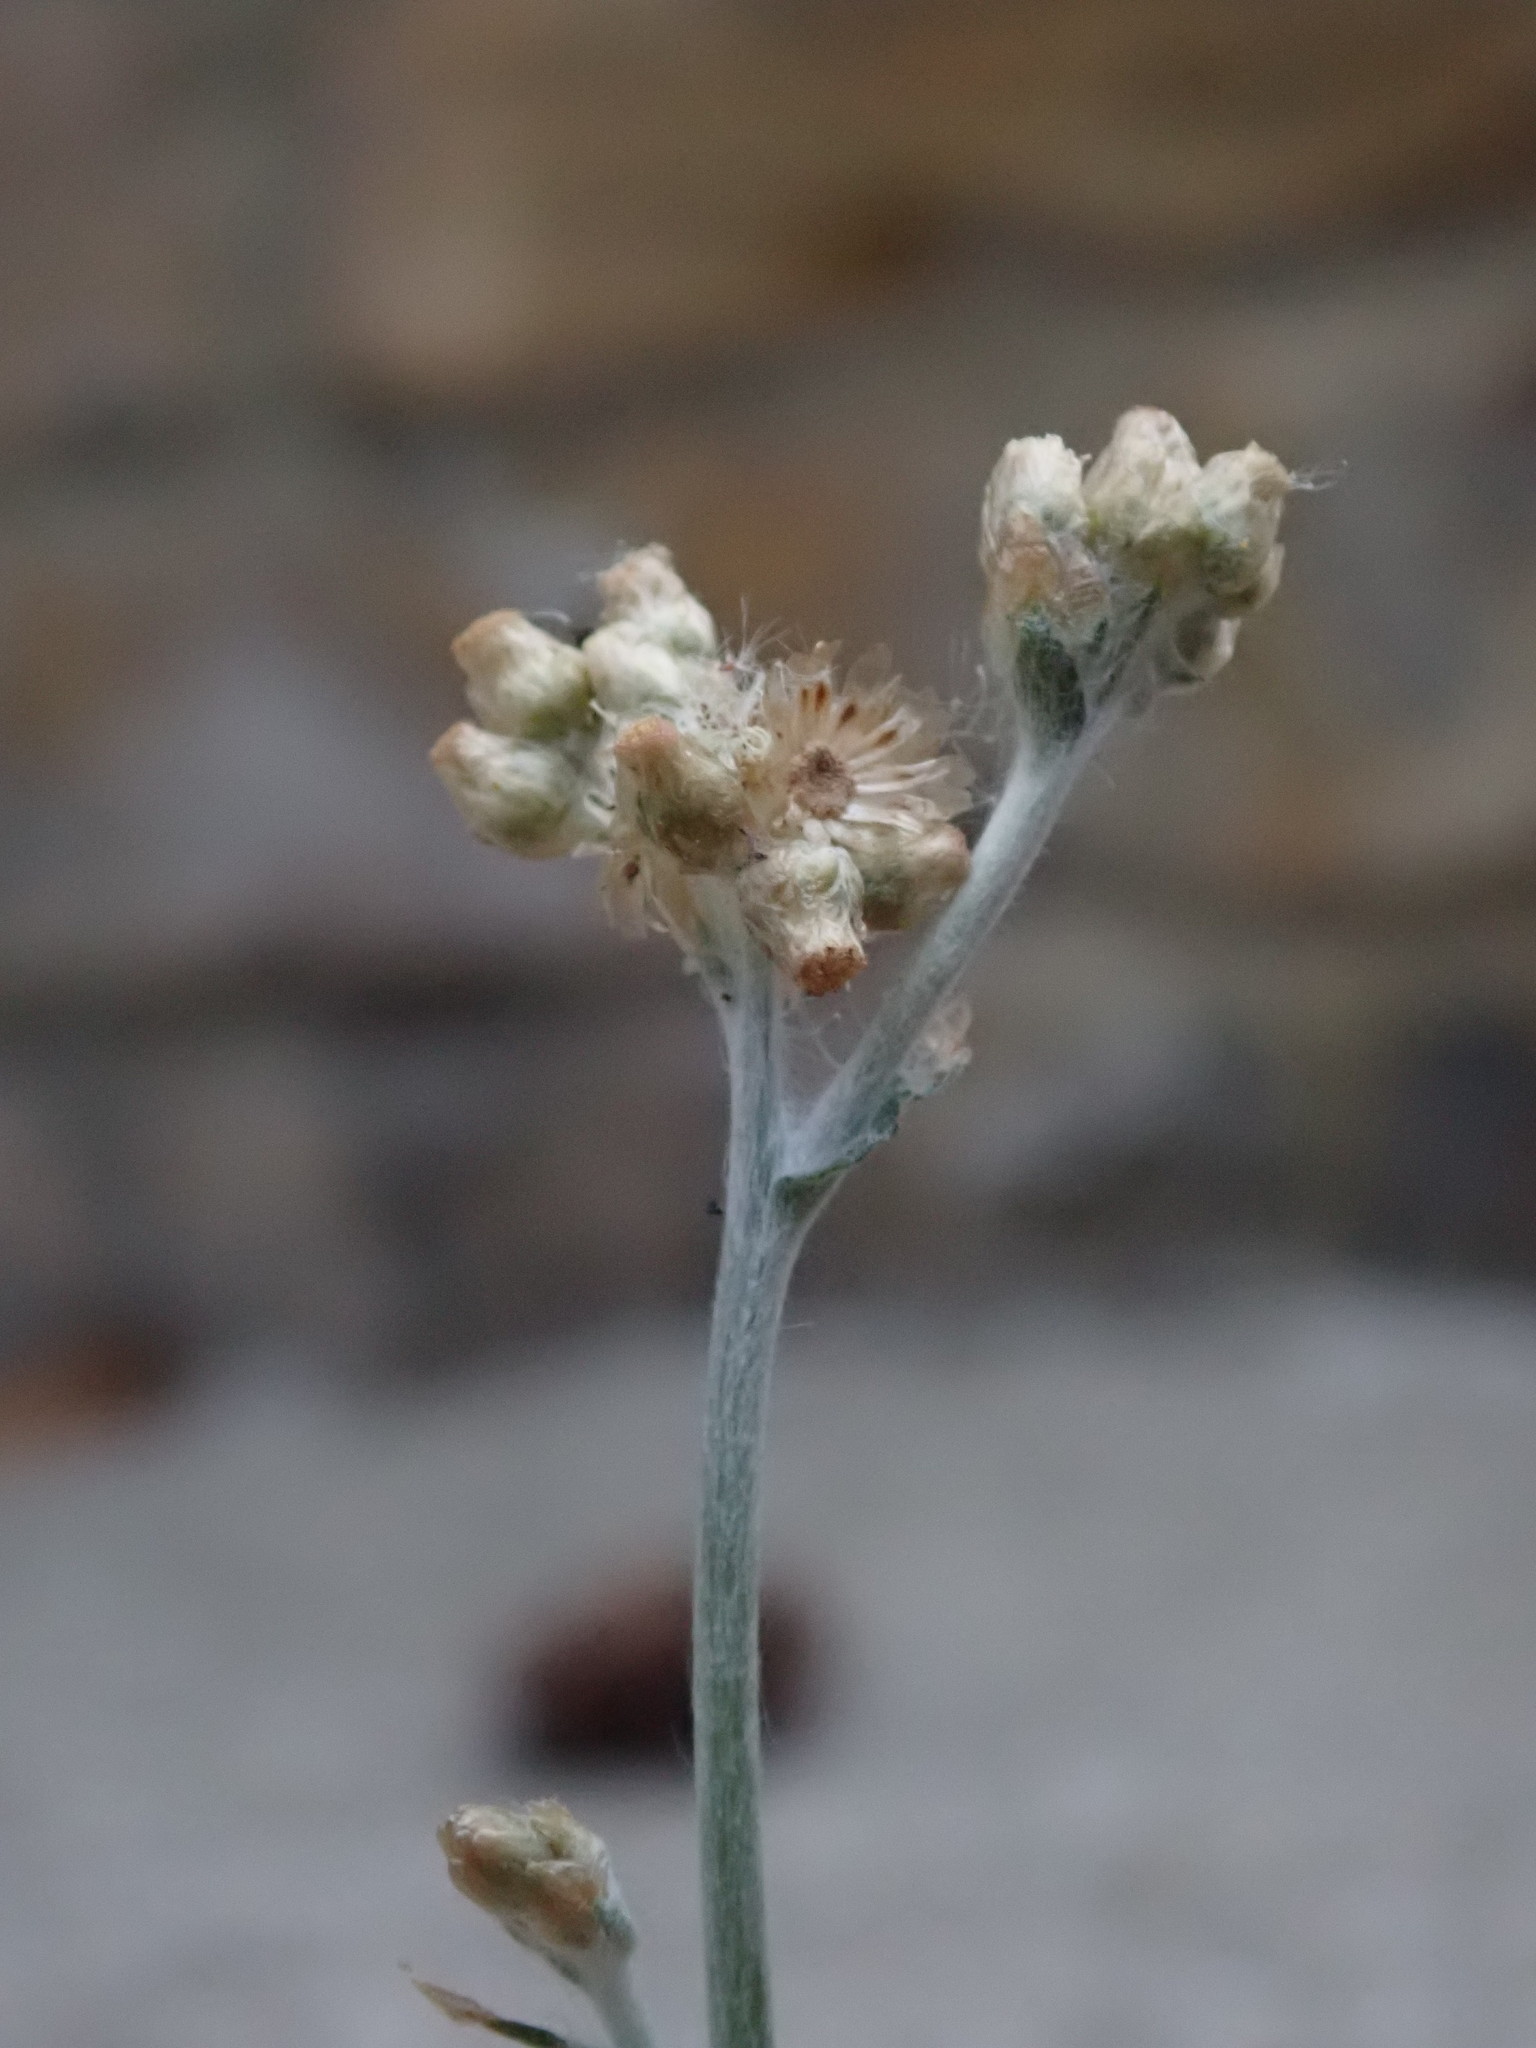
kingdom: Plantae
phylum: Tracheophyta
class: Magnoliopsida
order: Asterales
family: Asteraceae
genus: Helichrysum
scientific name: Helichrysum luteoalbum
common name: Daisy
